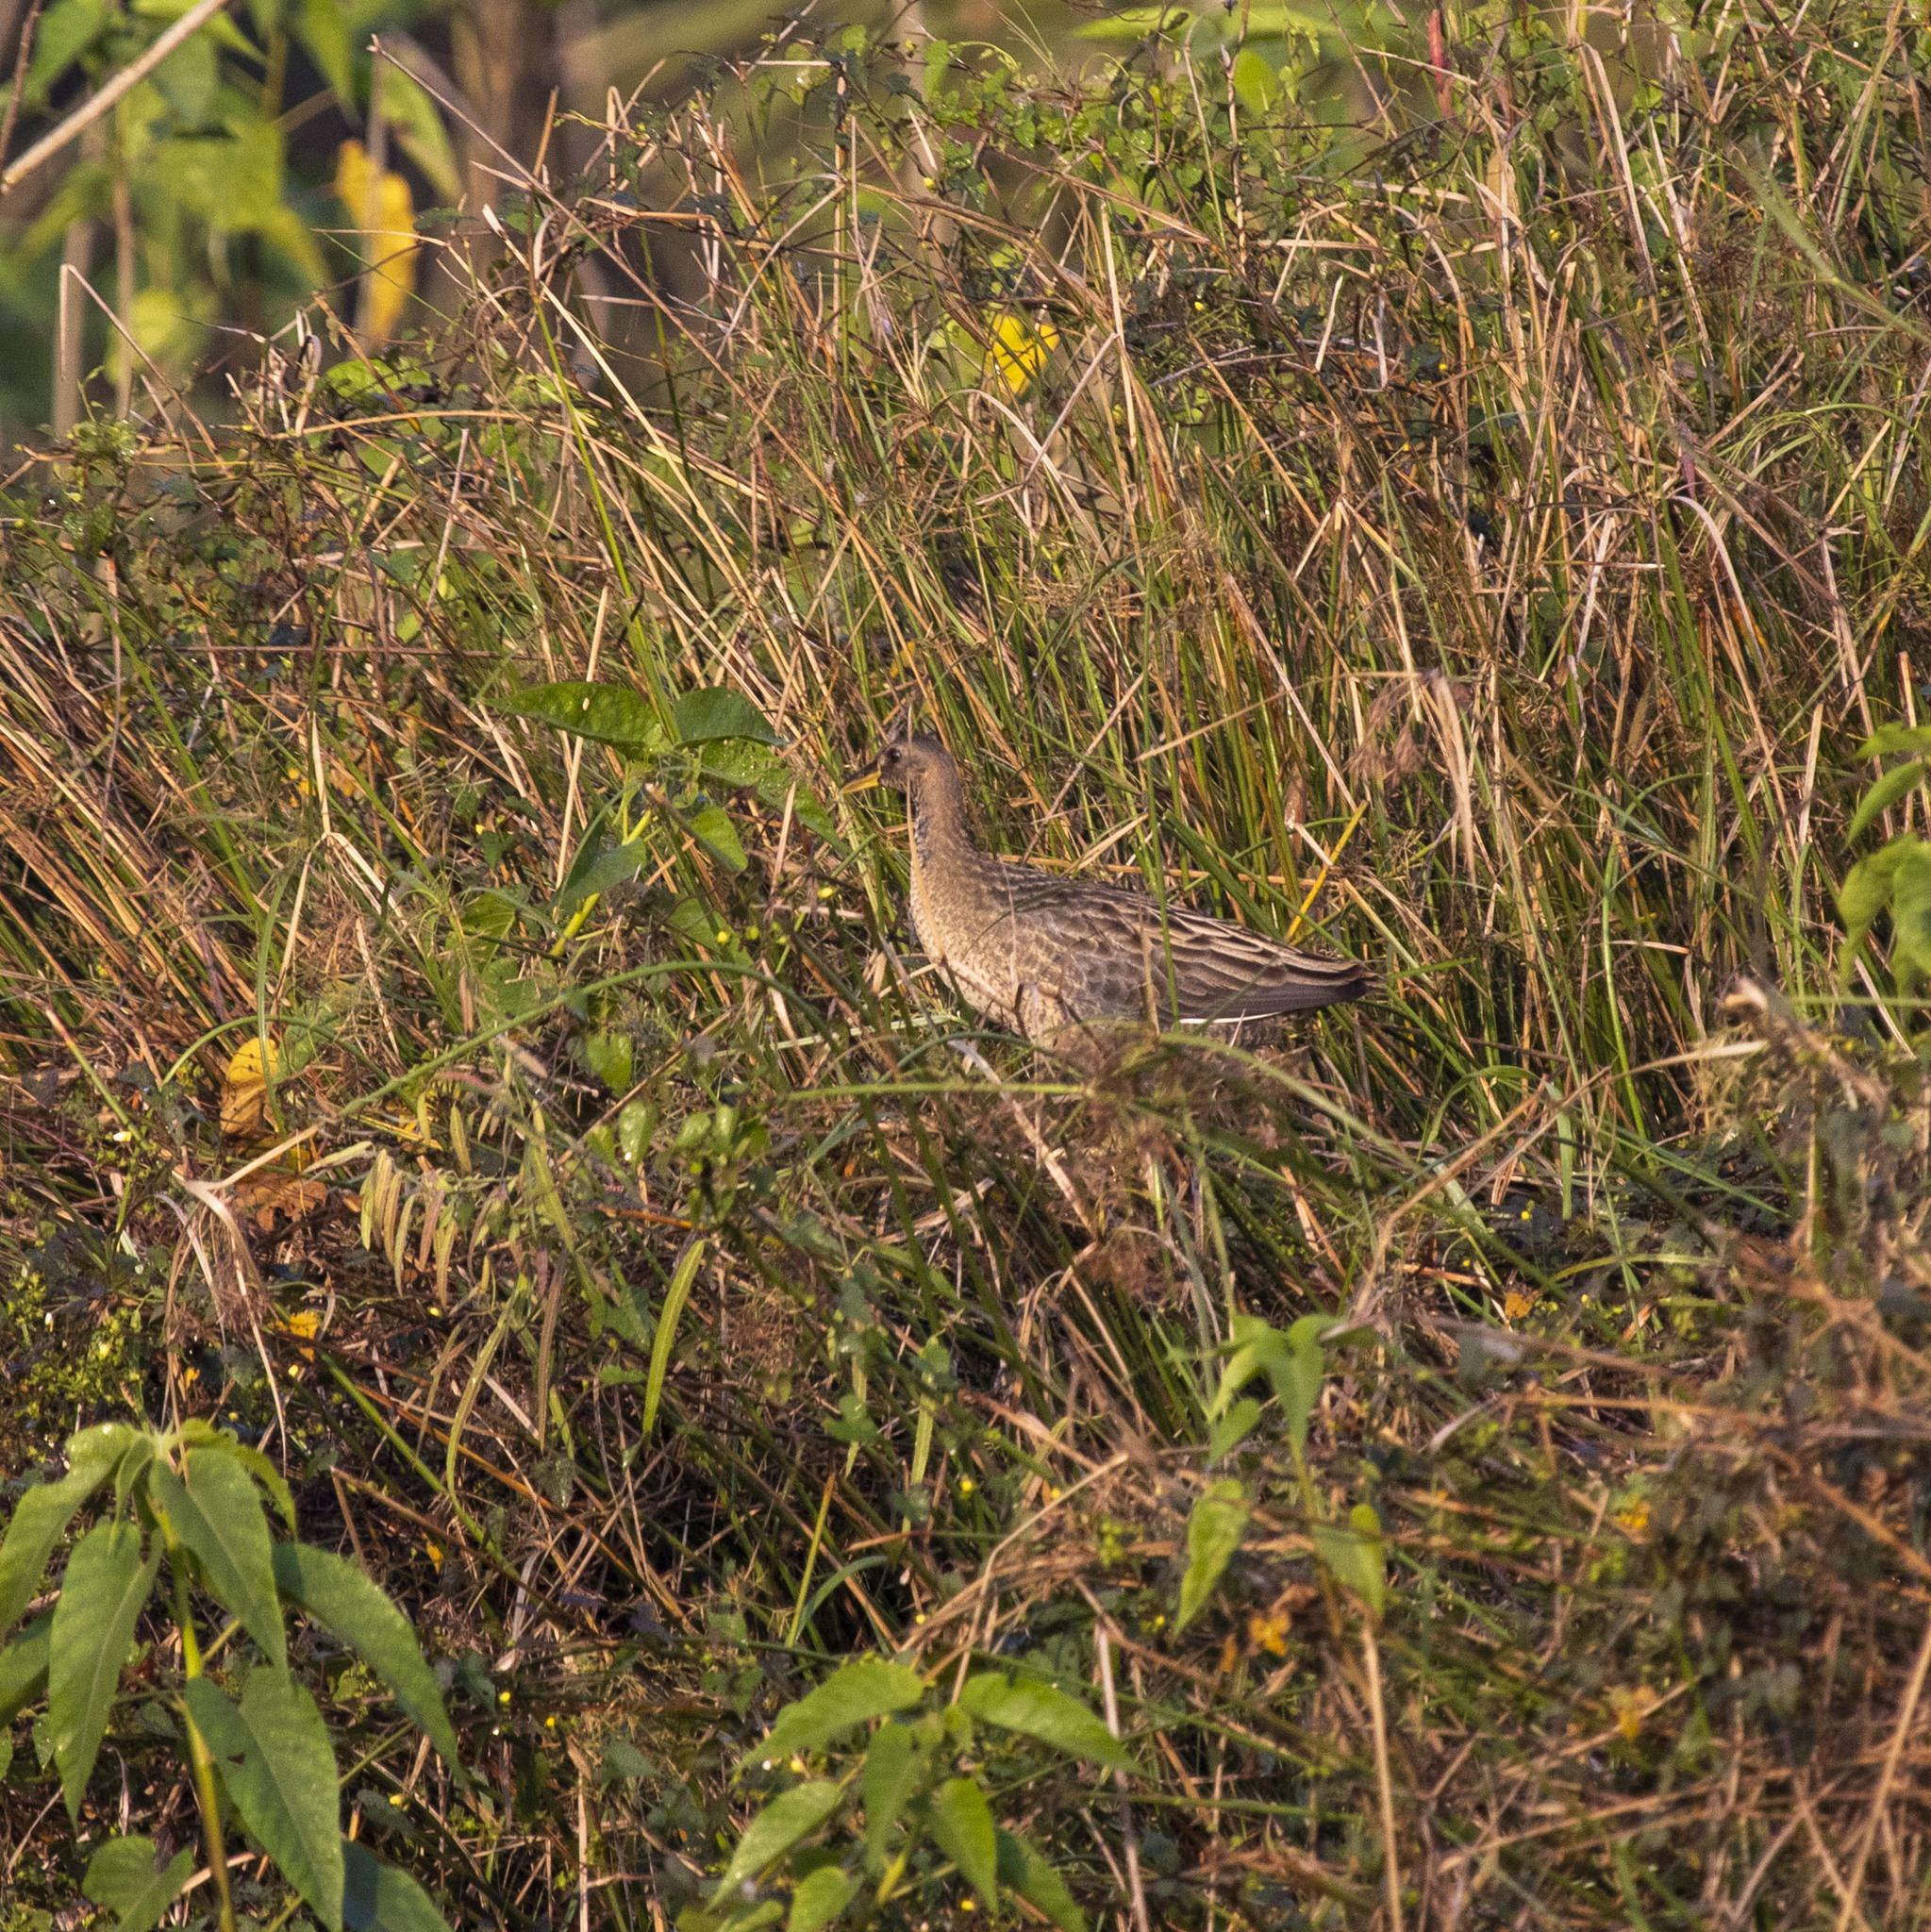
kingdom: Animalia
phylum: Chordata
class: Aves
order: Gruiformes
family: Rallidae
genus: Gallicrex
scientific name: Gallicrex cinerea
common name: Watercock
